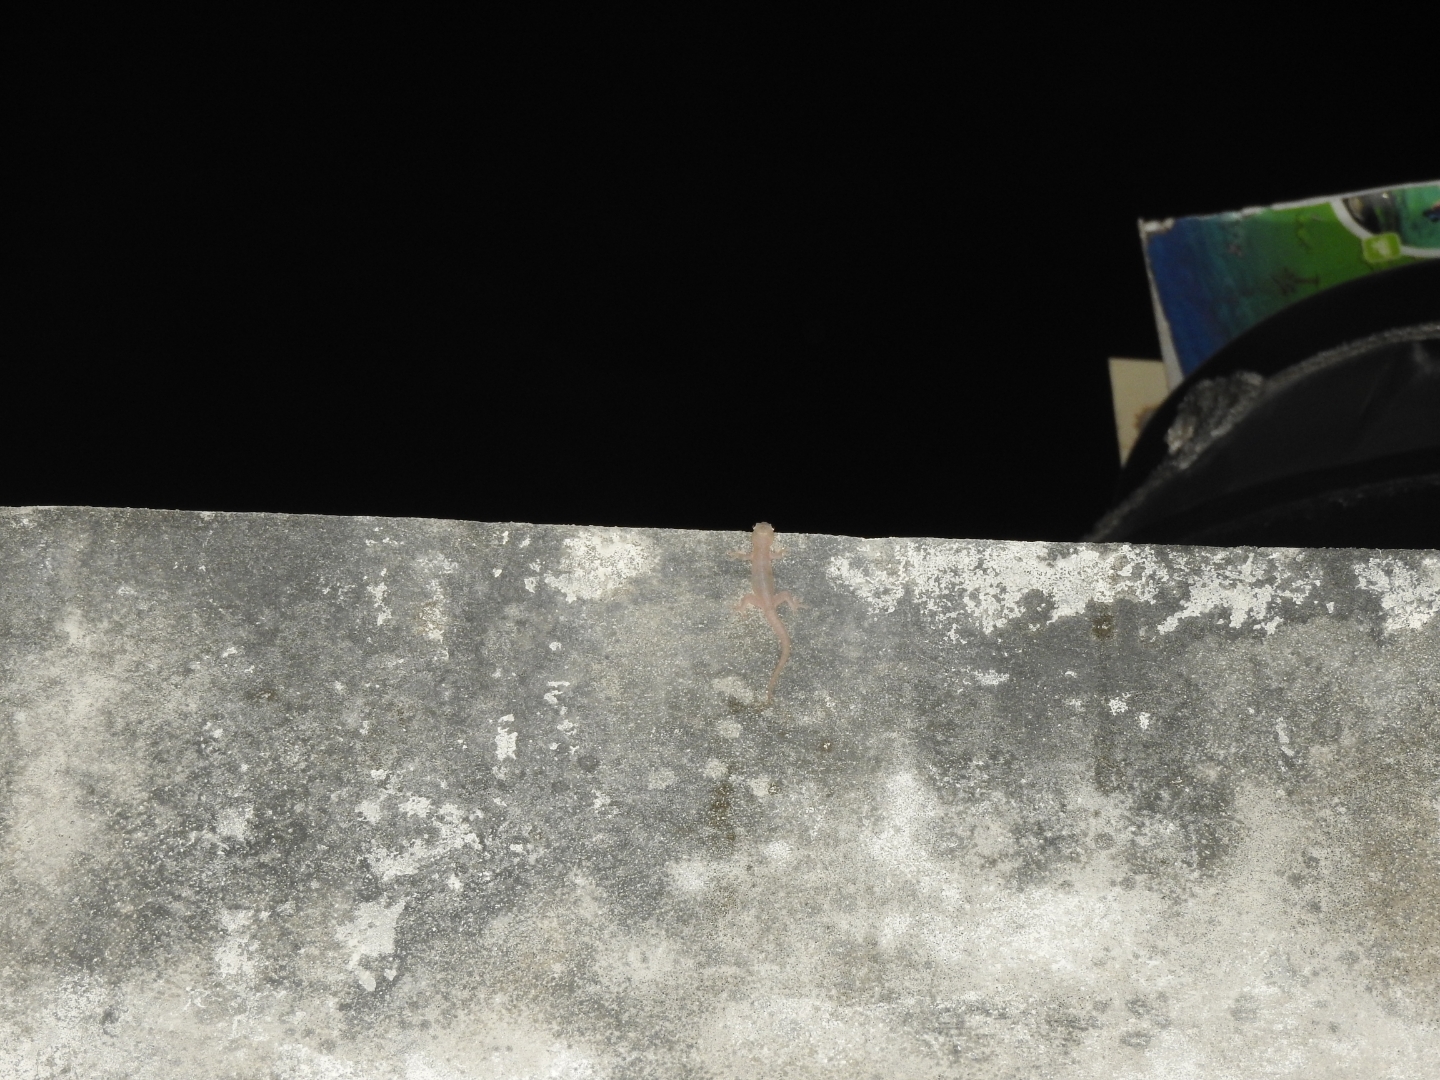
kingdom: Animalia
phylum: Chordata
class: Squamata
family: Gekkonidae
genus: Hemidactylus
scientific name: Hemidactylus frenatus
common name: Common house gecko
